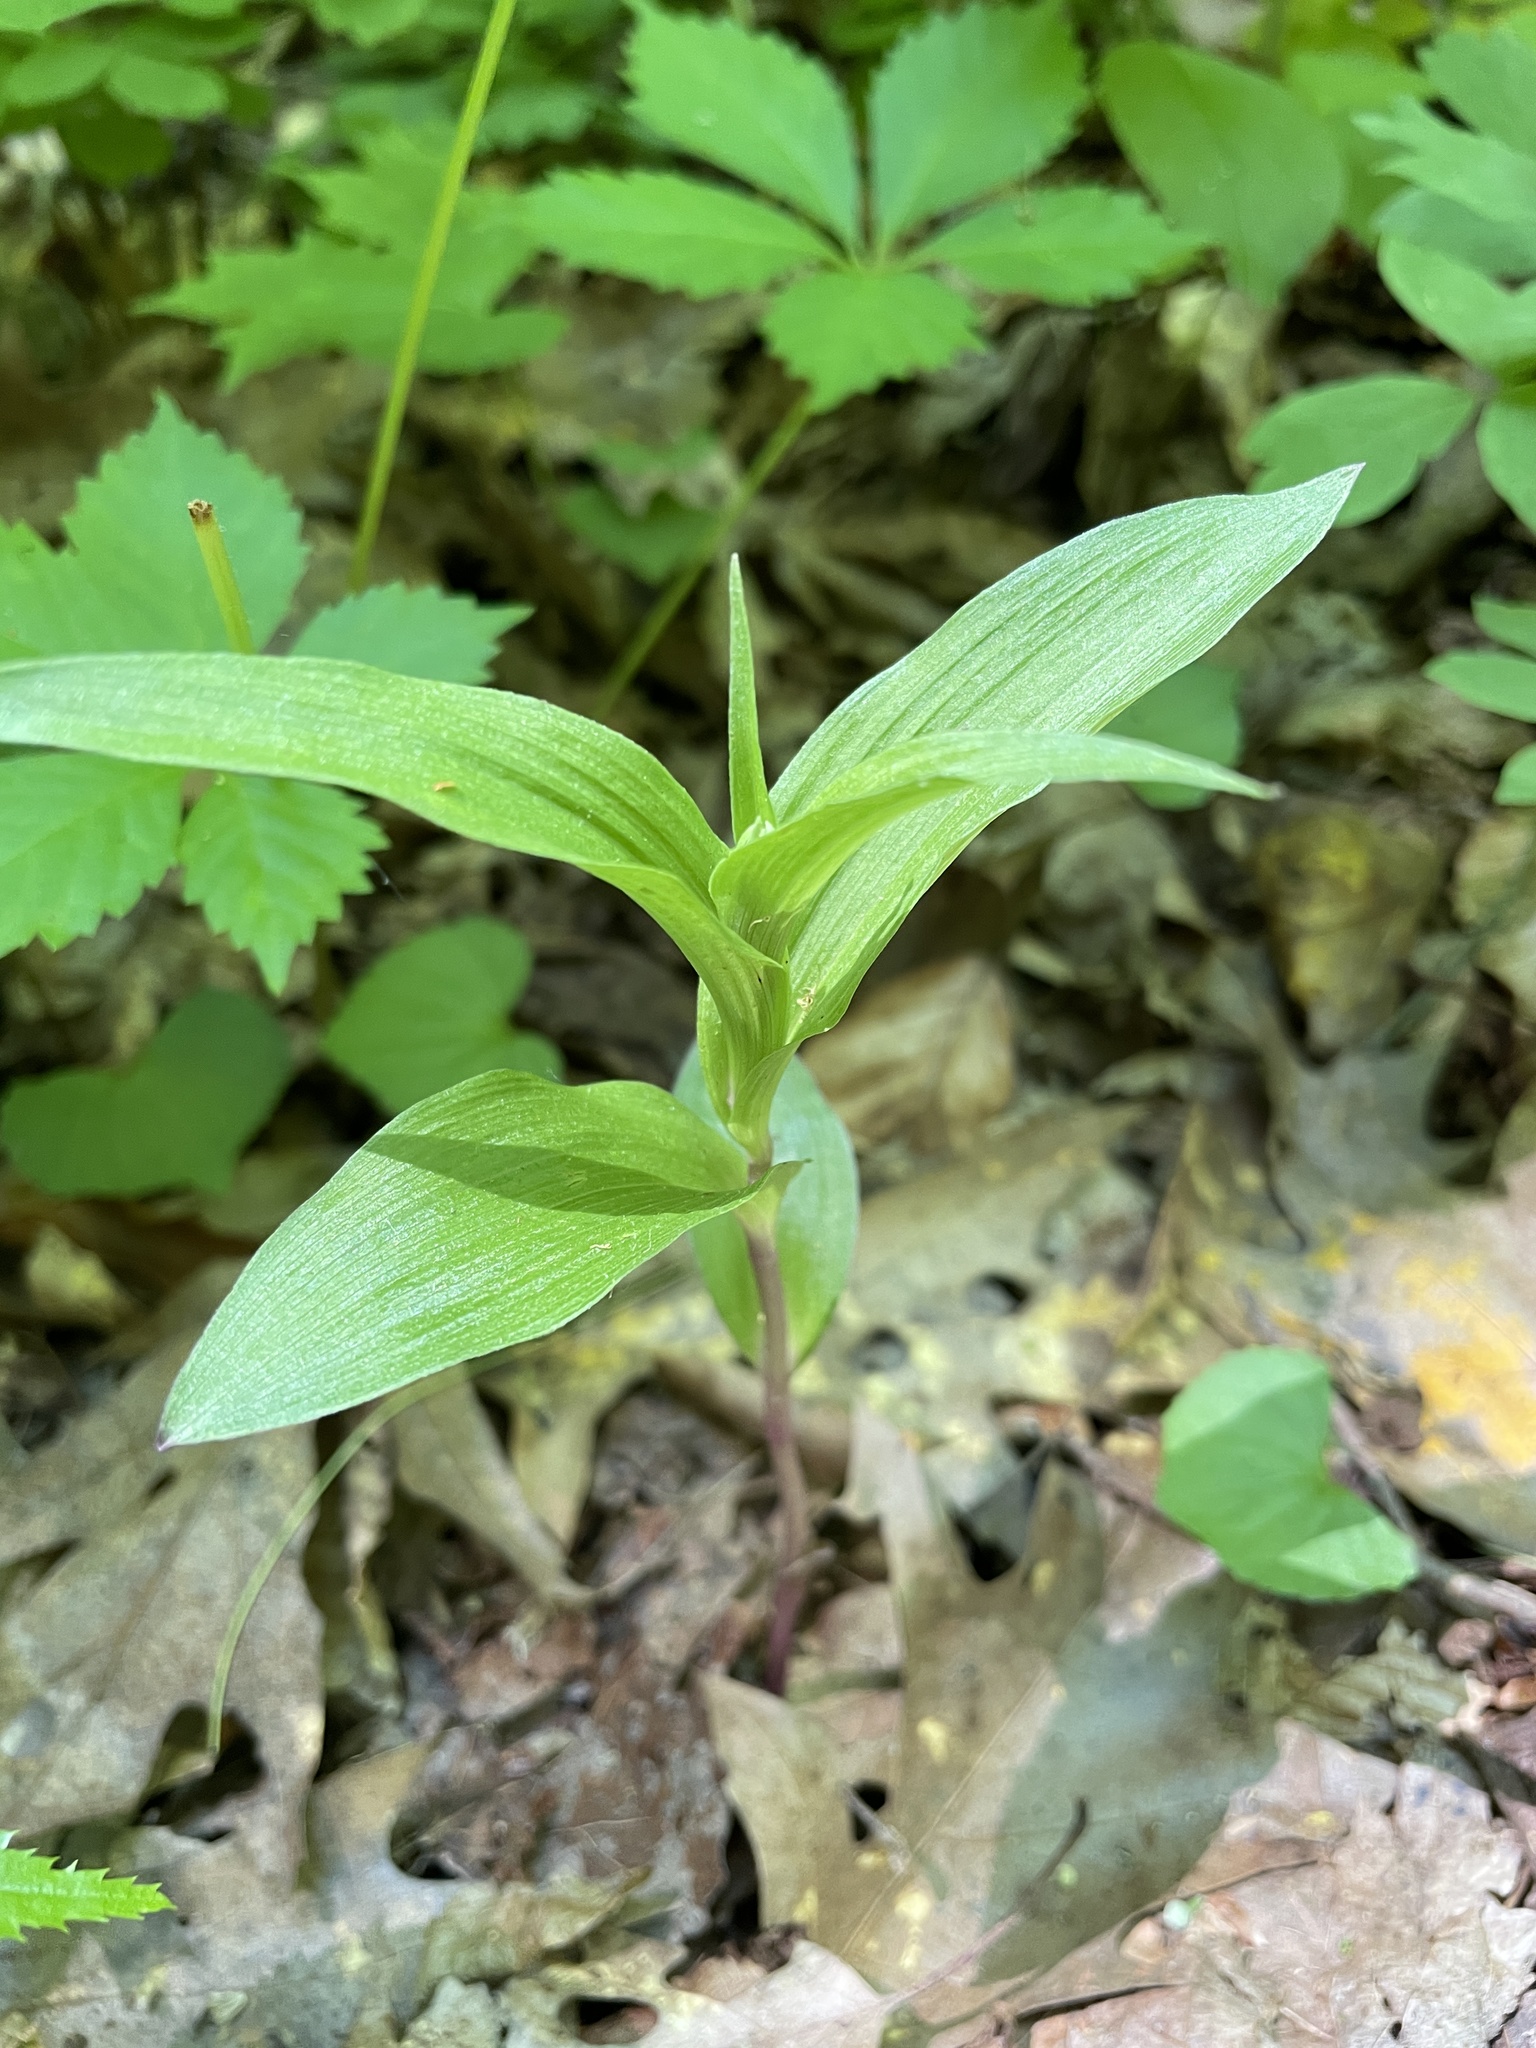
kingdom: Plantae
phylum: Tracheophyta
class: Liliopsida
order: Asparagales
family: Orchidaceae
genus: Epipactis
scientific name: Epipactis helleborine
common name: Broad-leaved helleborine
